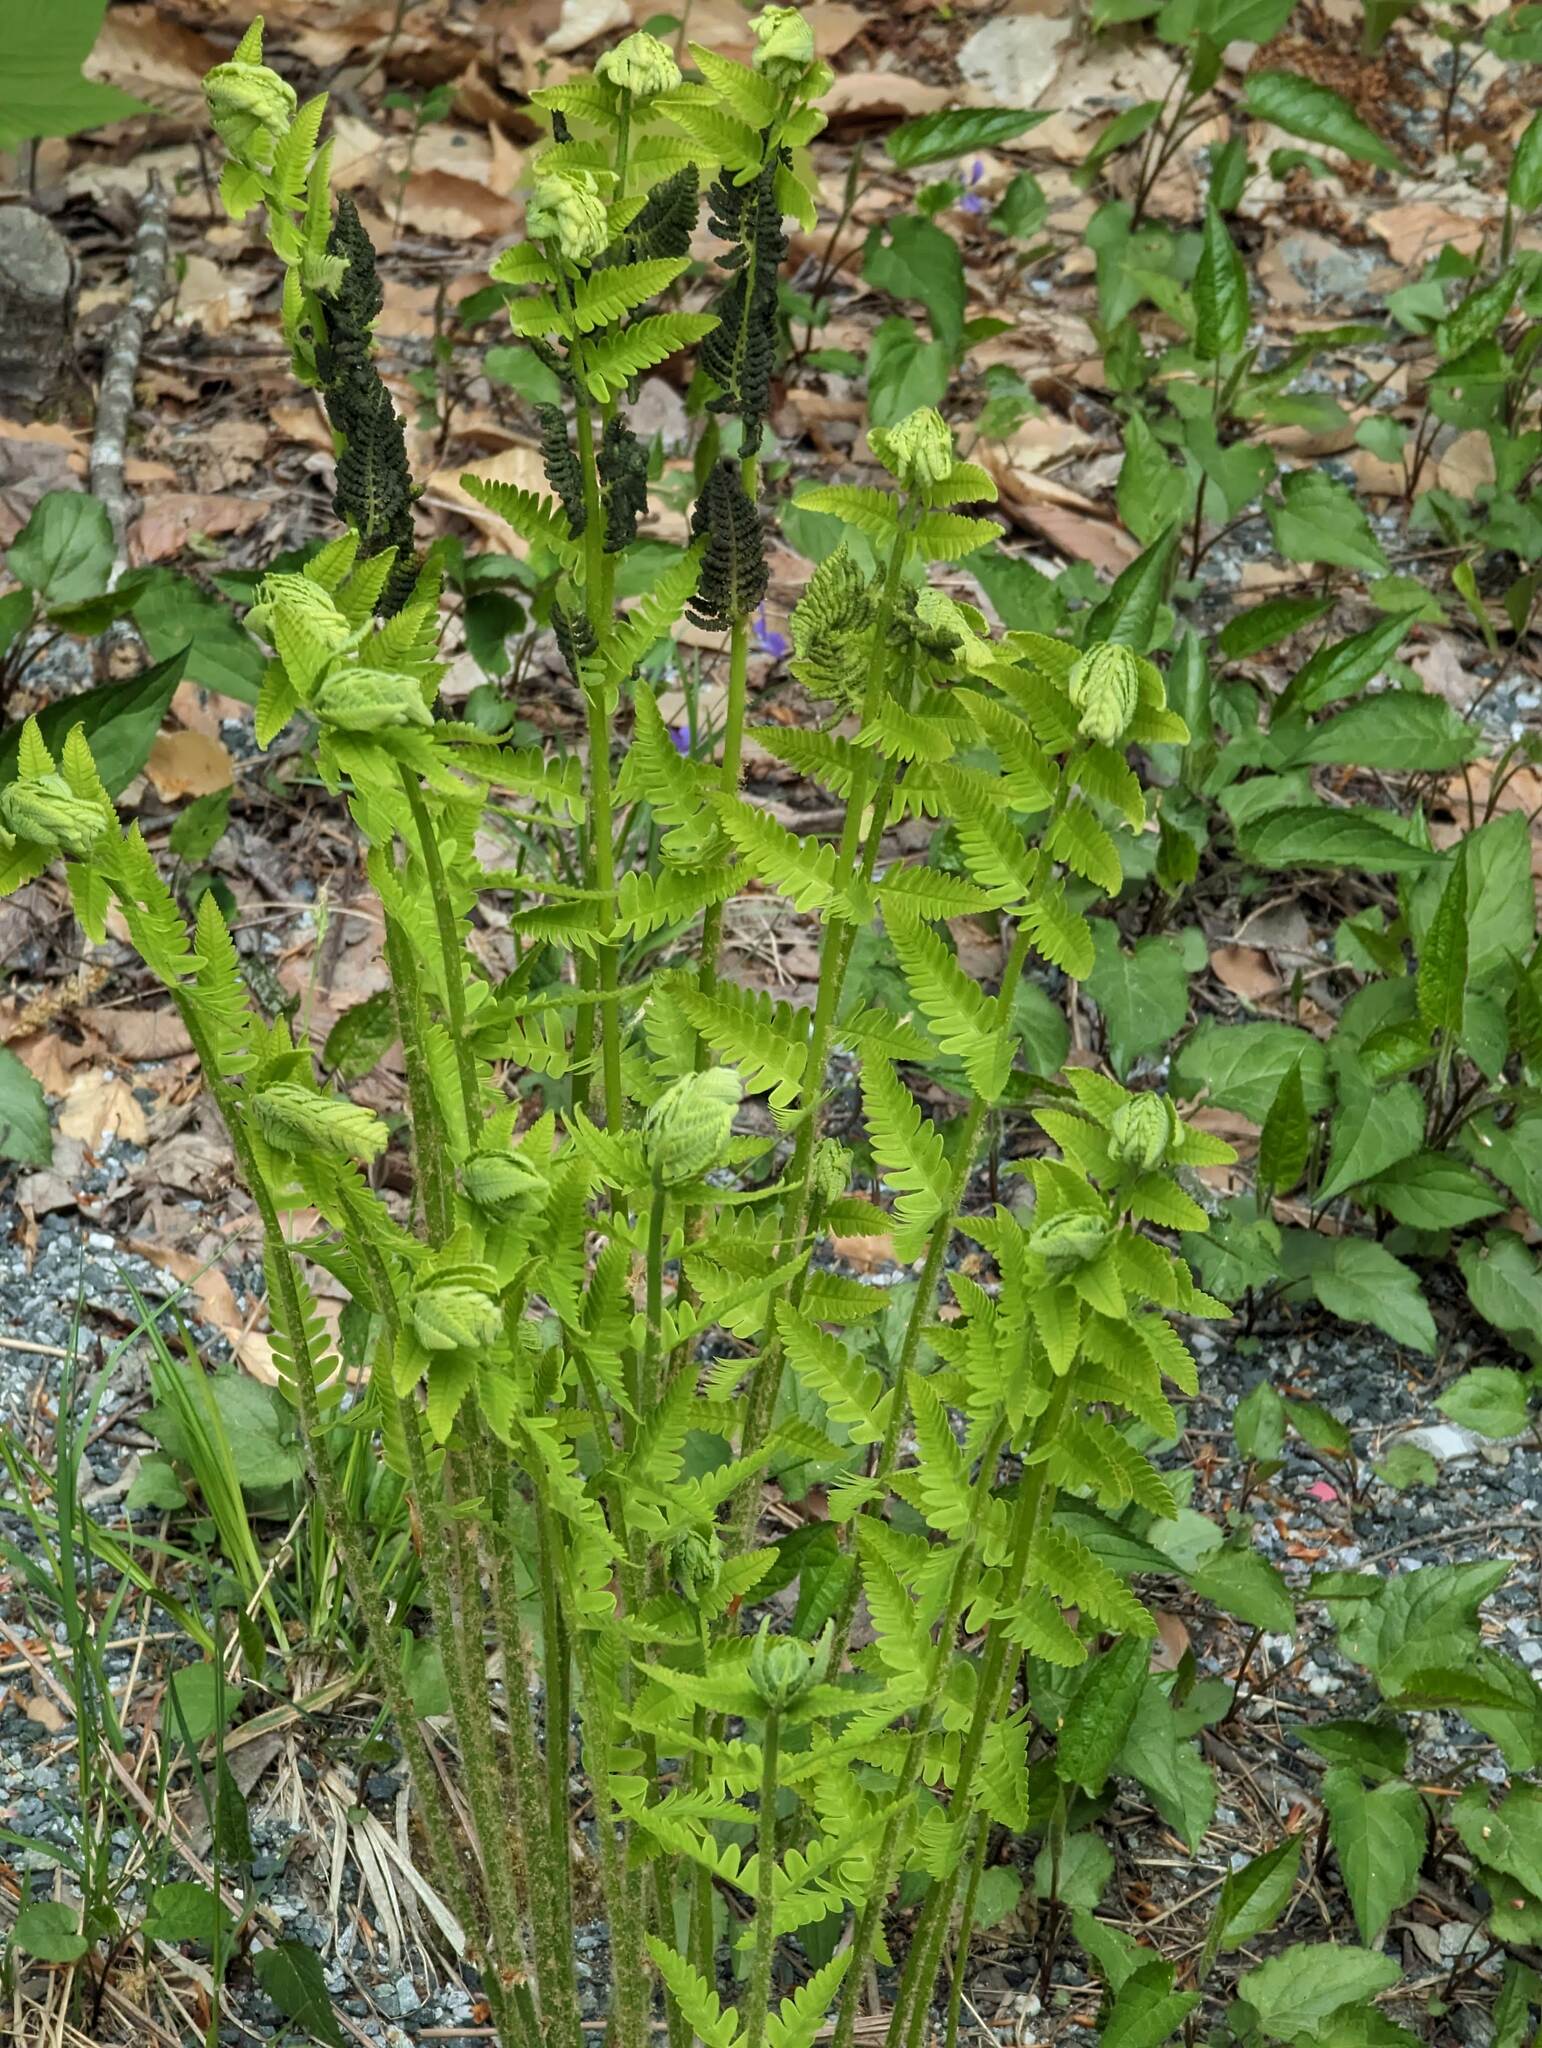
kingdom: Plantae
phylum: Tracheophyta
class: Polypodiopsida
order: Osmundales
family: Osmundaceae
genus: Claytosmunda
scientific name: Claytosmunda claytoniana
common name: Clayton's fern
